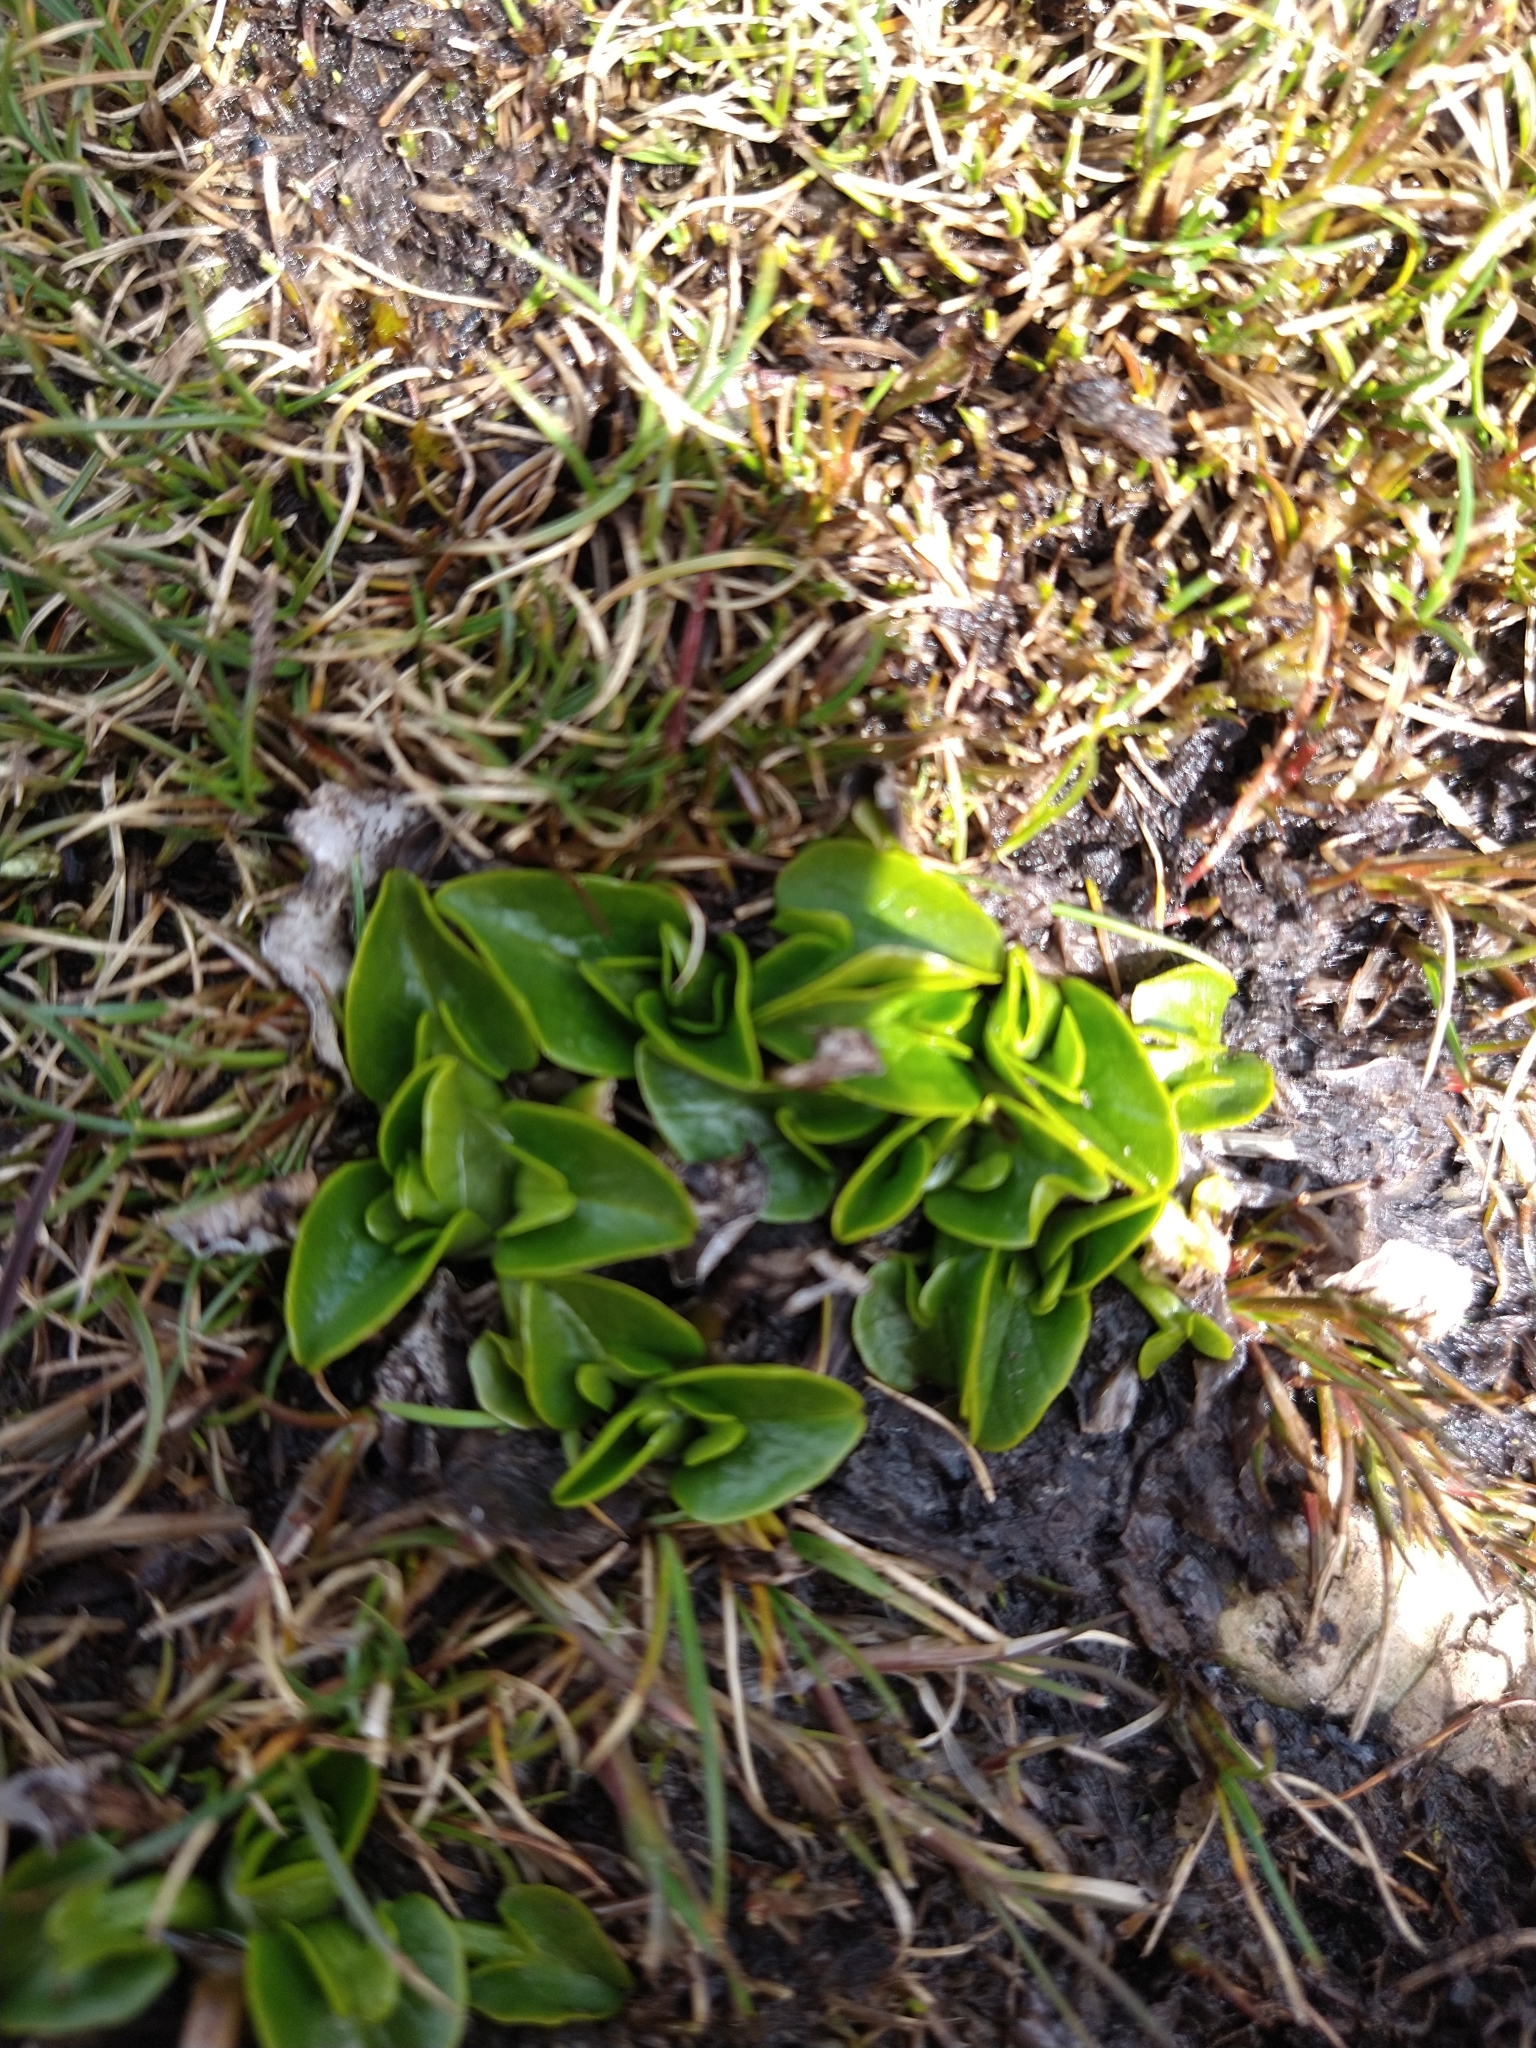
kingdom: Plantae
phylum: Tracheophyta
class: Magnoliopsida
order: Ranunculales
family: Ranunculaceae
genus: Caltha
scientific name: Caltha sagittata
